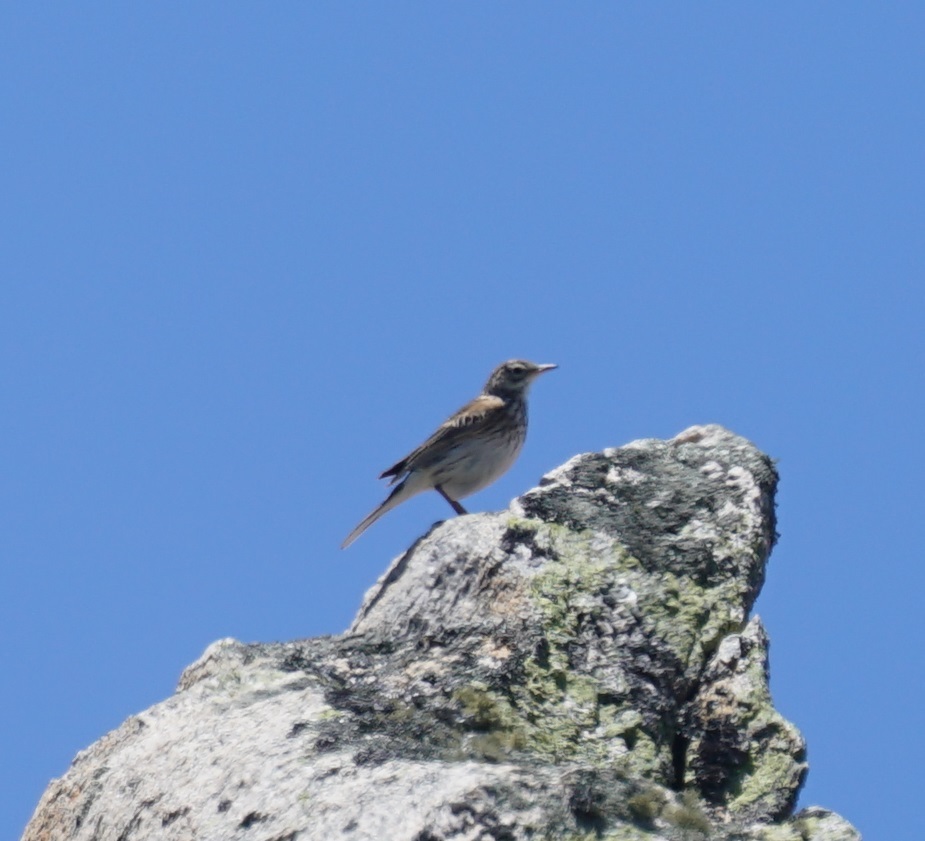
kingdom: Animalia
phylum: Chordata
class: Aves
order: Passeriformes
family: Motacillidae
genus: Anthus
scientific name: Anthus australis
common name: Australian pipit
